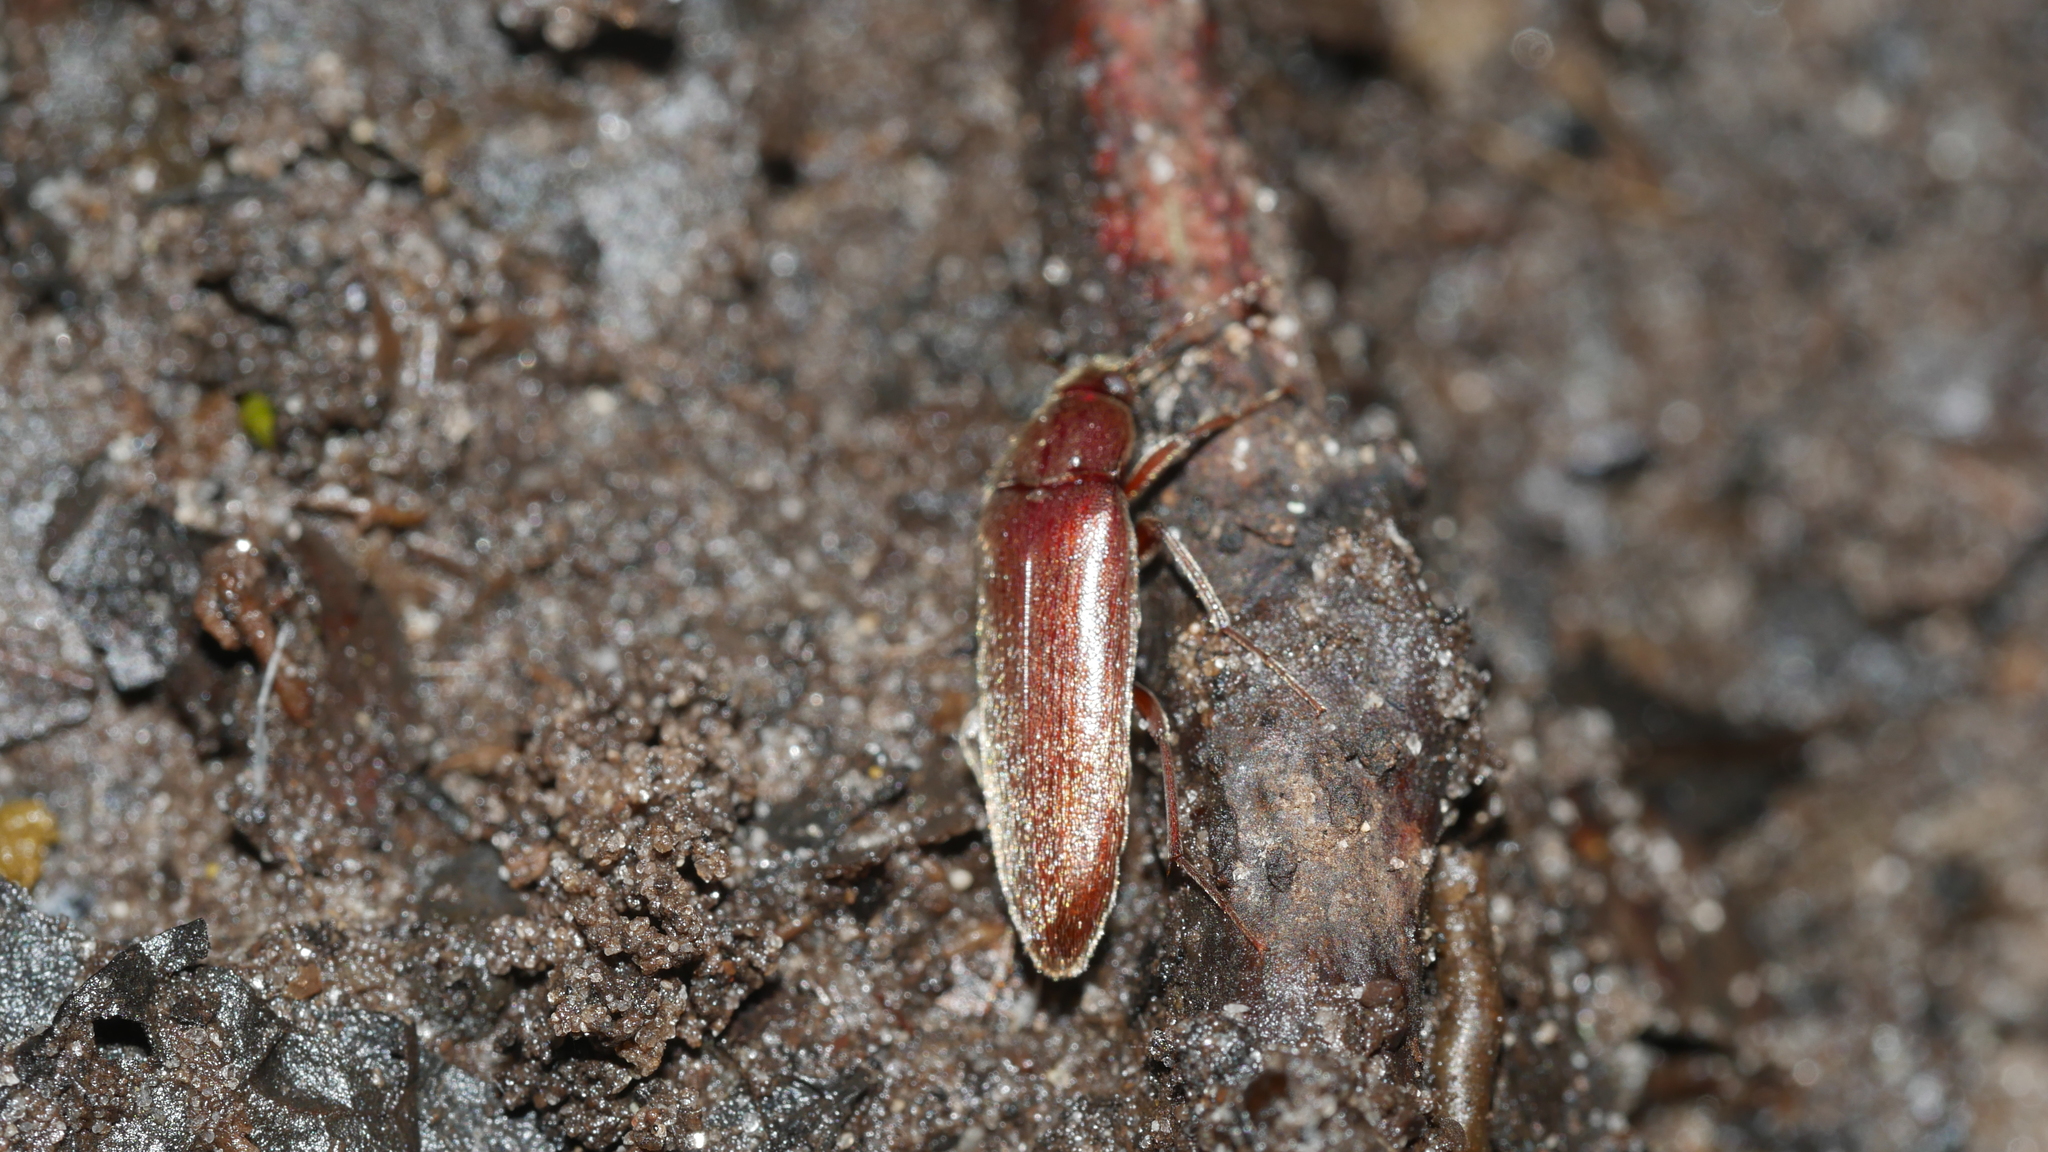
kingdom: Animalia
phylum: Arthropoda
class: Insecta
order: Coleoptera
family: Synchroidae
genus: Synchroa
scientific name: Synchroa punctata
